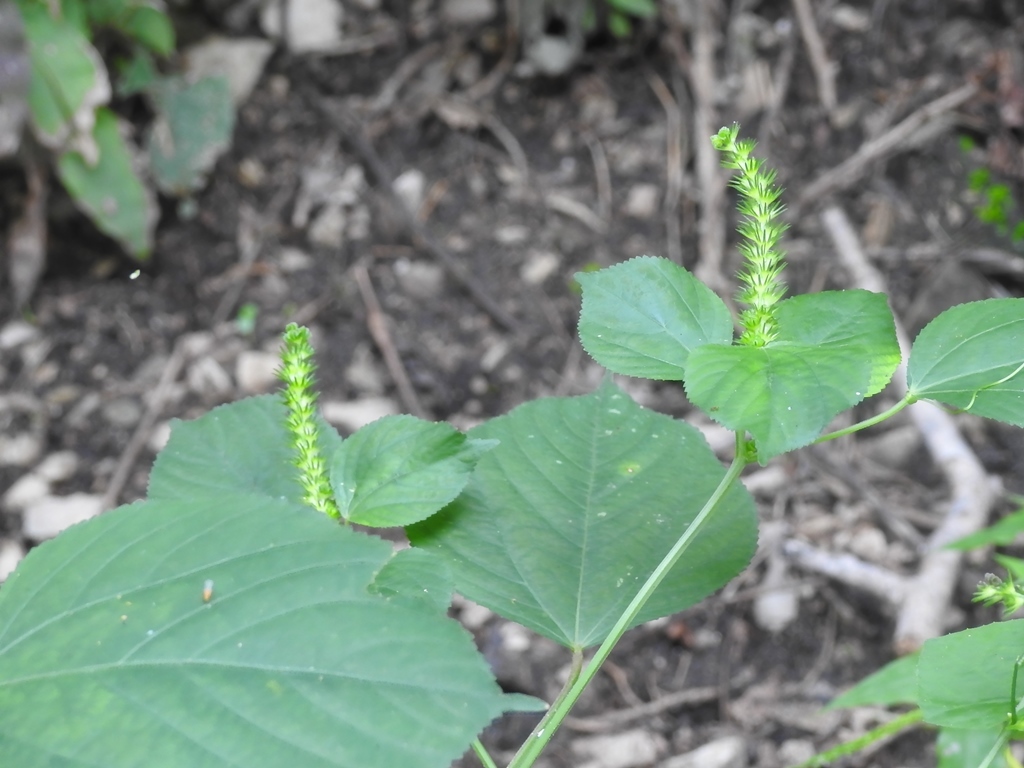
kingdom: Plantae
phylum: Tracheophyta
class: Magnoliopsida
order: Malpighiales
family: Euphorbiaceae
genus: Acalypha
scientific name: Acalypha macrostachya
